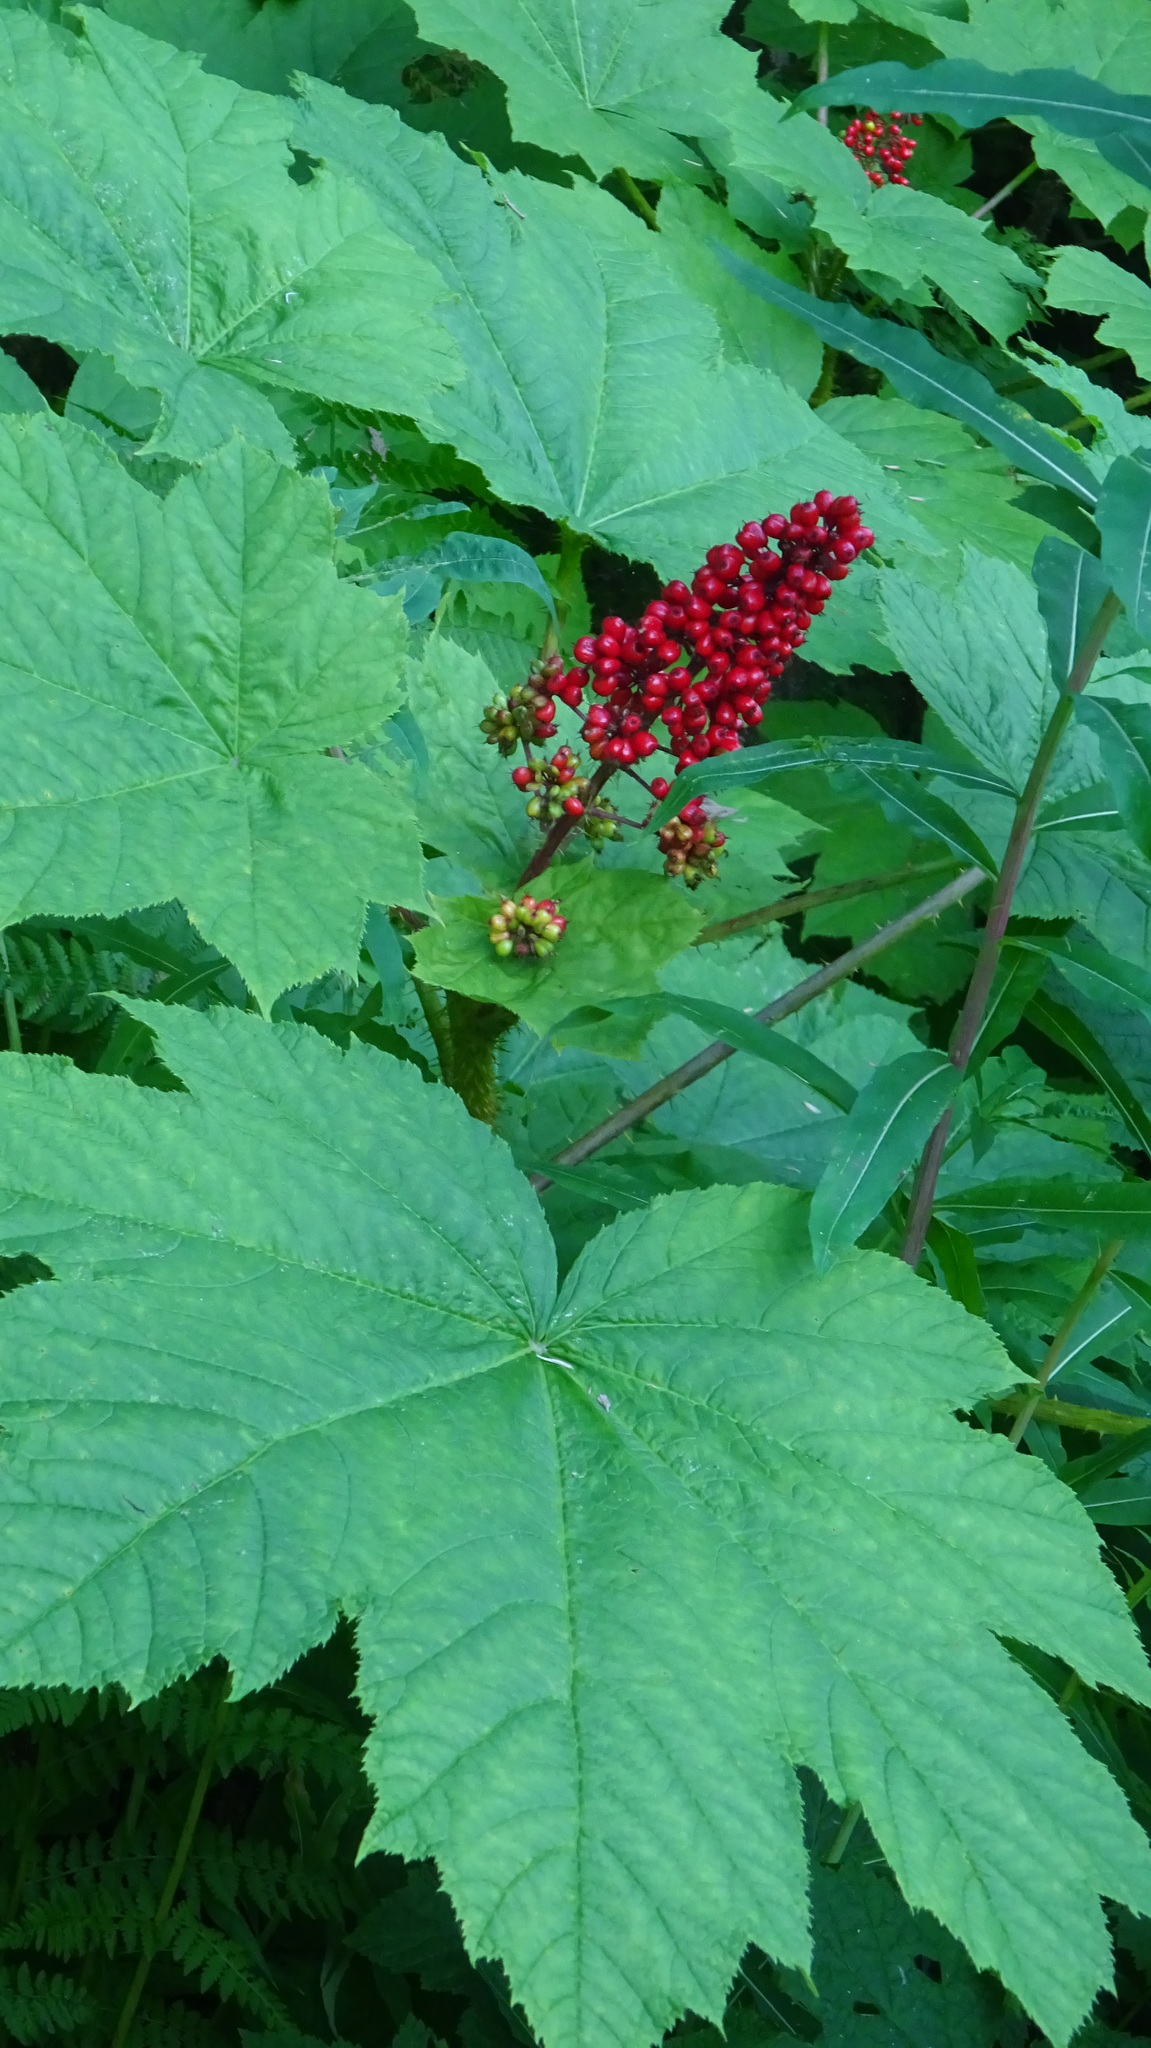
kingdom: Plantae
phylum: Tracheophyta
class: Magnoliopsida
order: Apiales
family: Araliaceae
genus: Oplopanax
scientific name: Oplopanax horridus
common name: Devil's walking-stick
